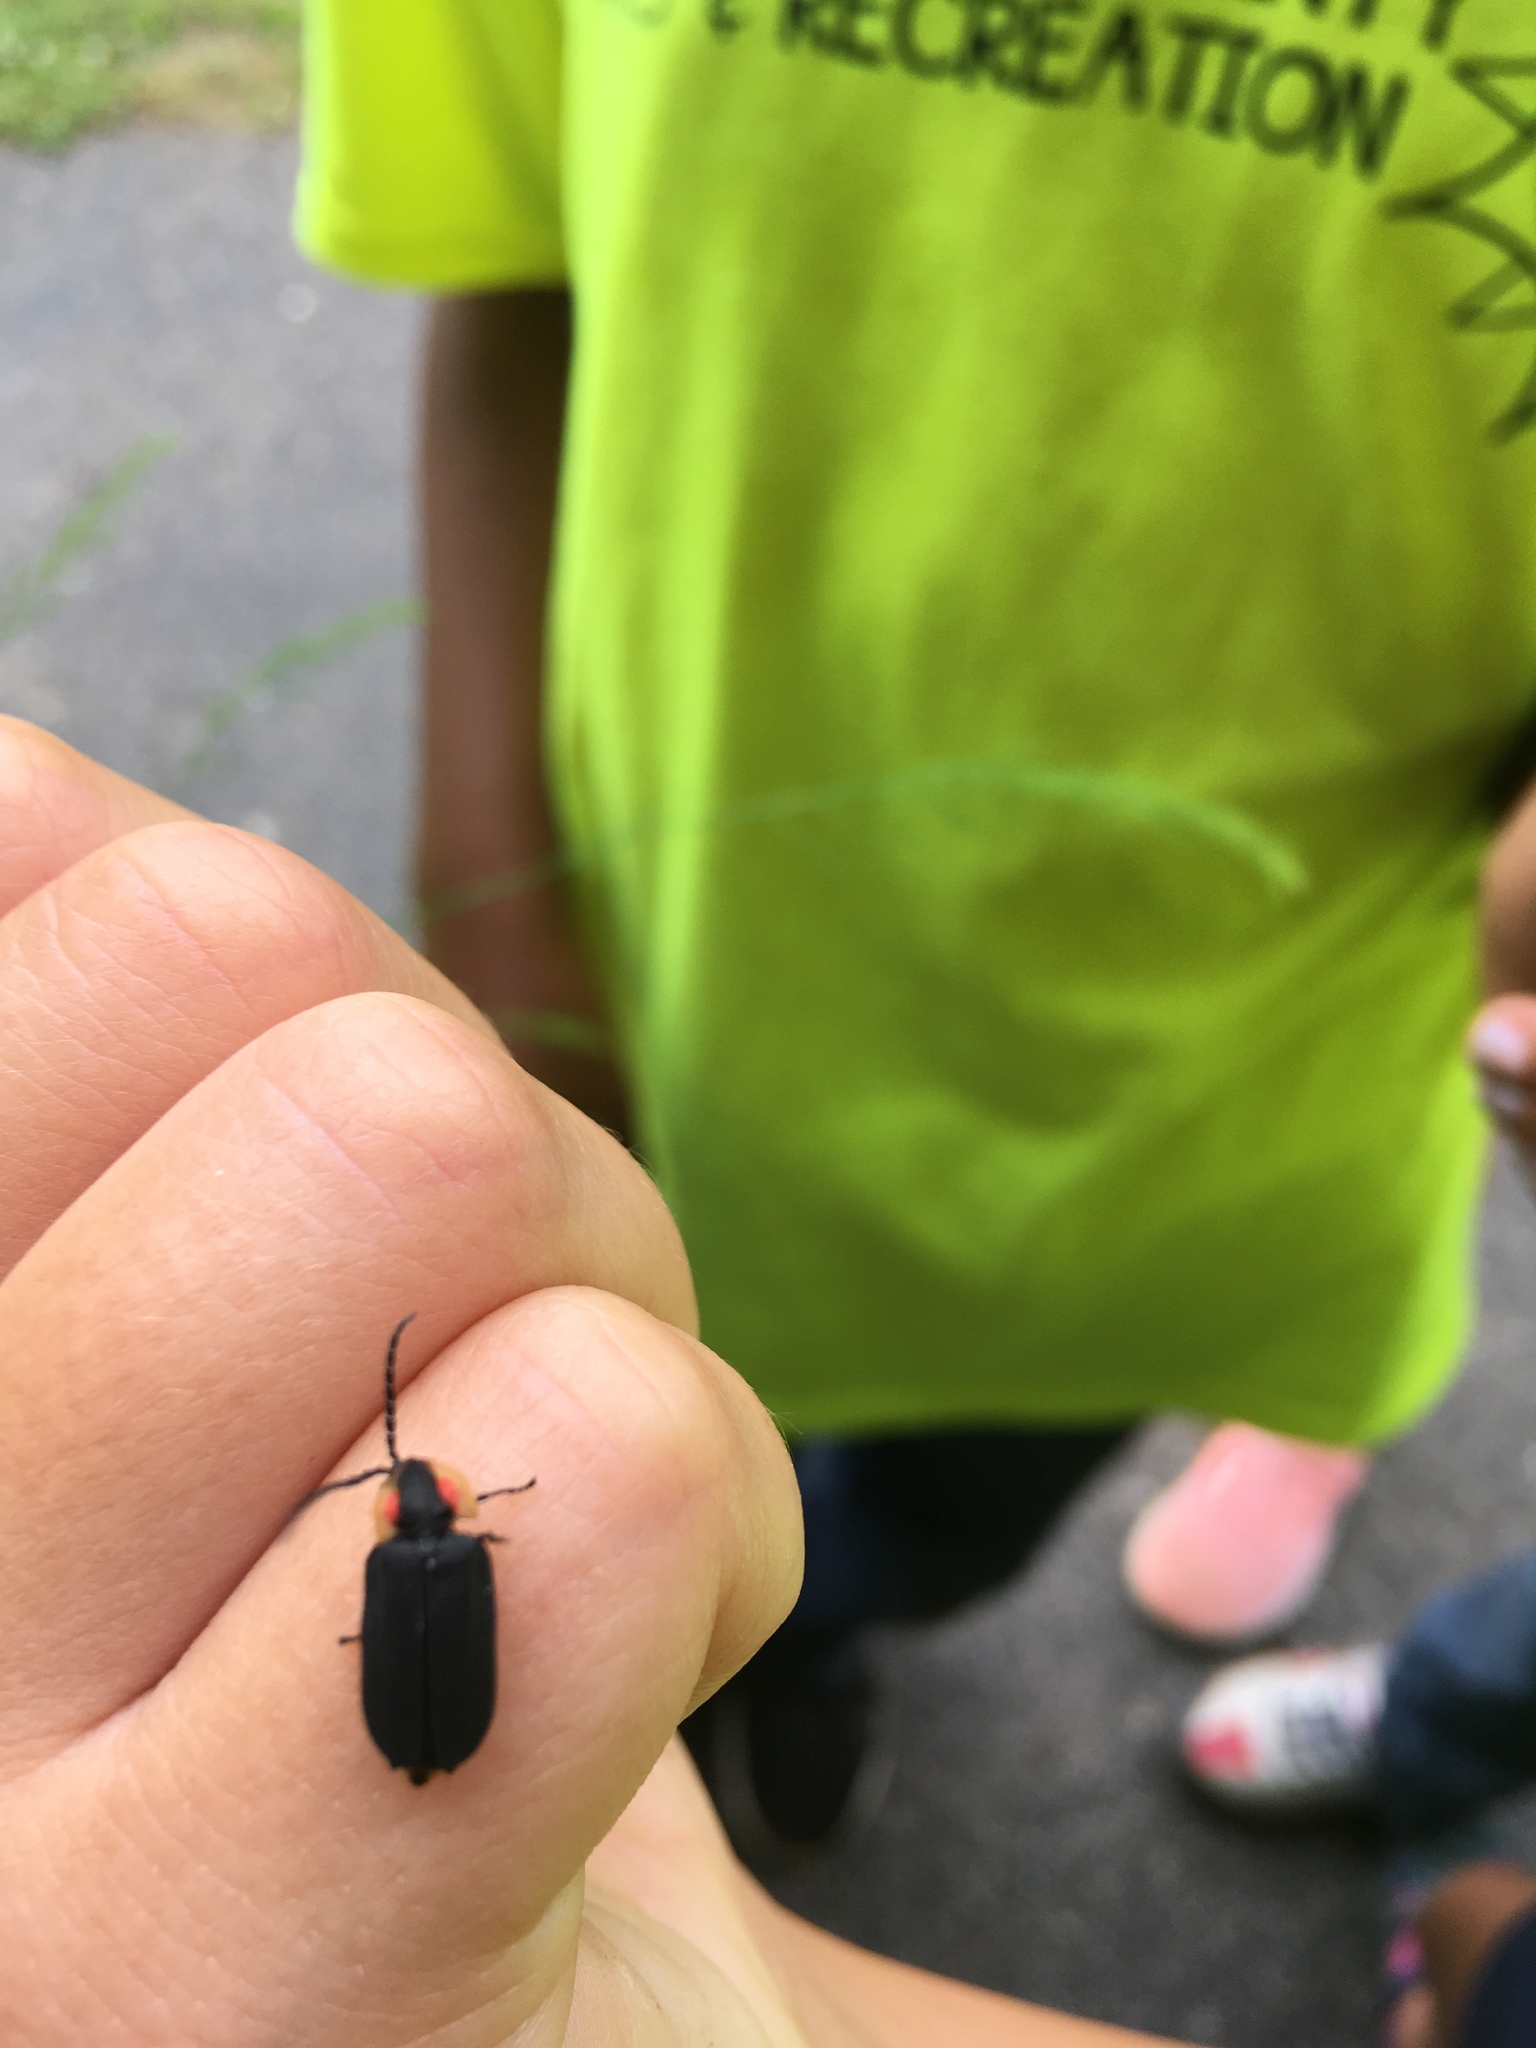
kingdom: Animalia
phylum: Arthropoda
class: Insecta
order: Coleoptera
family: Lampyridae
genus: Lucidota
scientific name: Lucidota atra
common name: Black firefly
